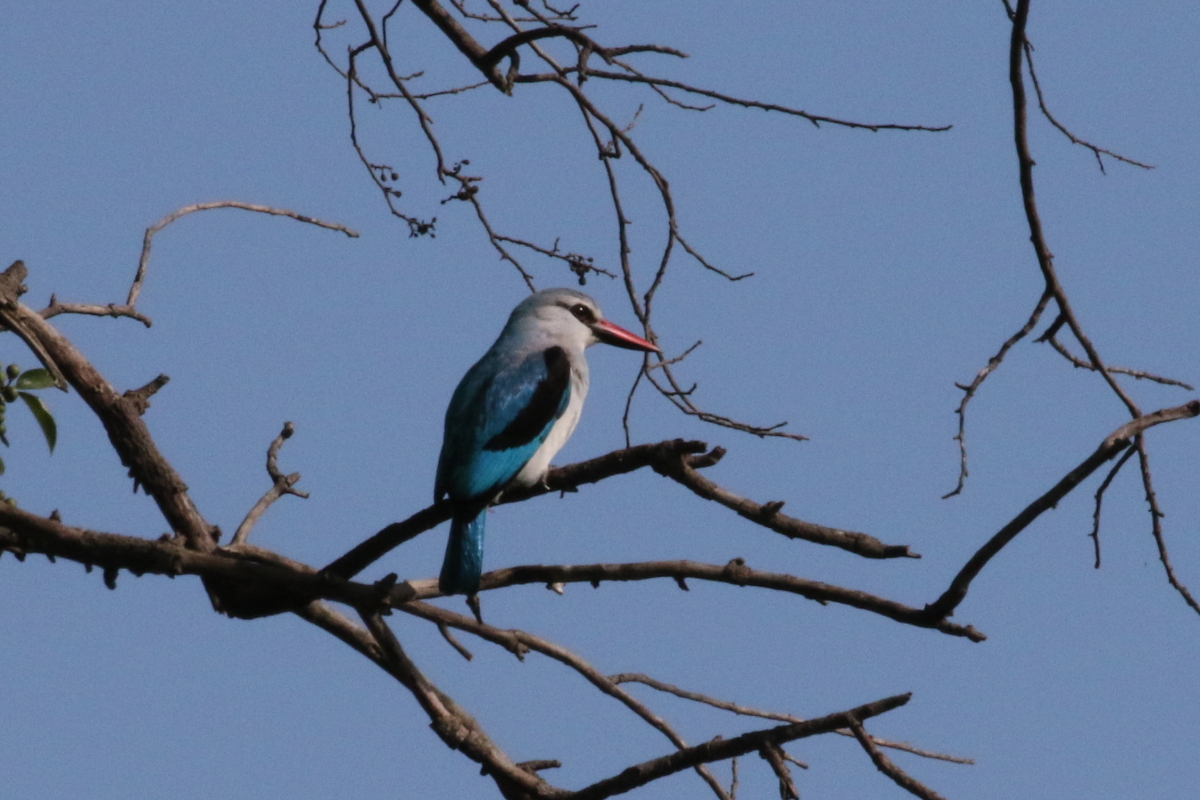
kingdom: Animalia
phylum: Chordata
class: Aves
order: Coraciiformes
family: Alcedinidae
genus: Halcyon
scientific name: Halcyon senegalensis
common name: Woodland kingfisher
